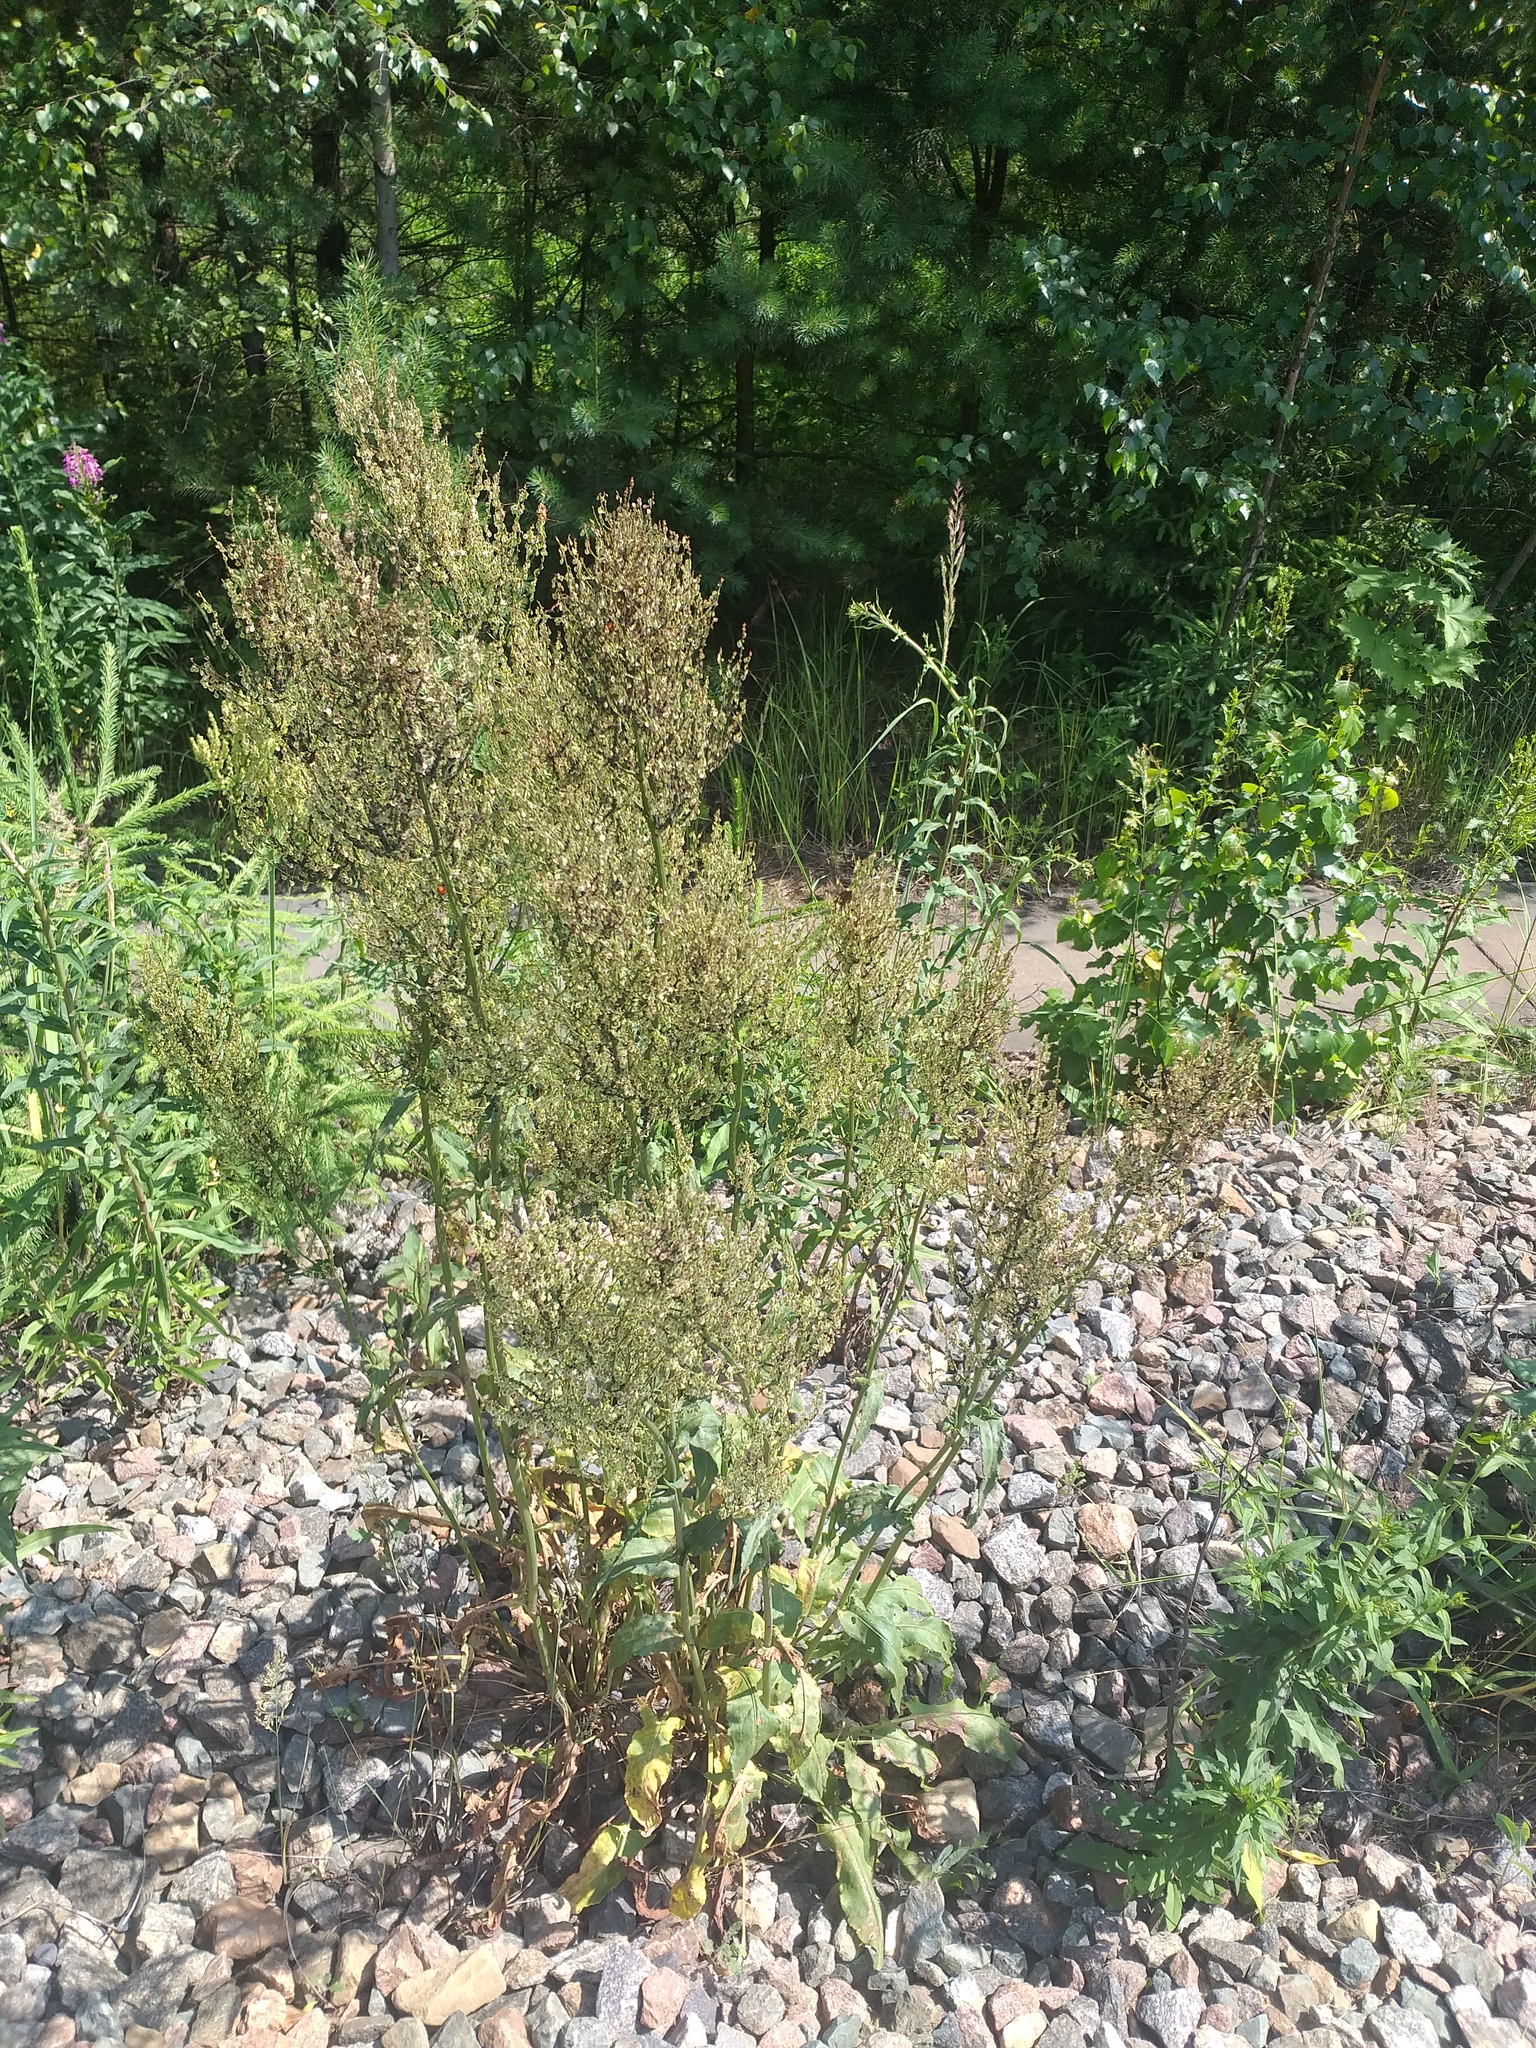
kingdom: Plantae
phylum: Tracheophyta
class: Magnoliopsida
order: Caryophyllales
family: Polygonaceae
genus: Rumex
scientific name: Rumex thyrsiflorus
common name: Garden sorrel
